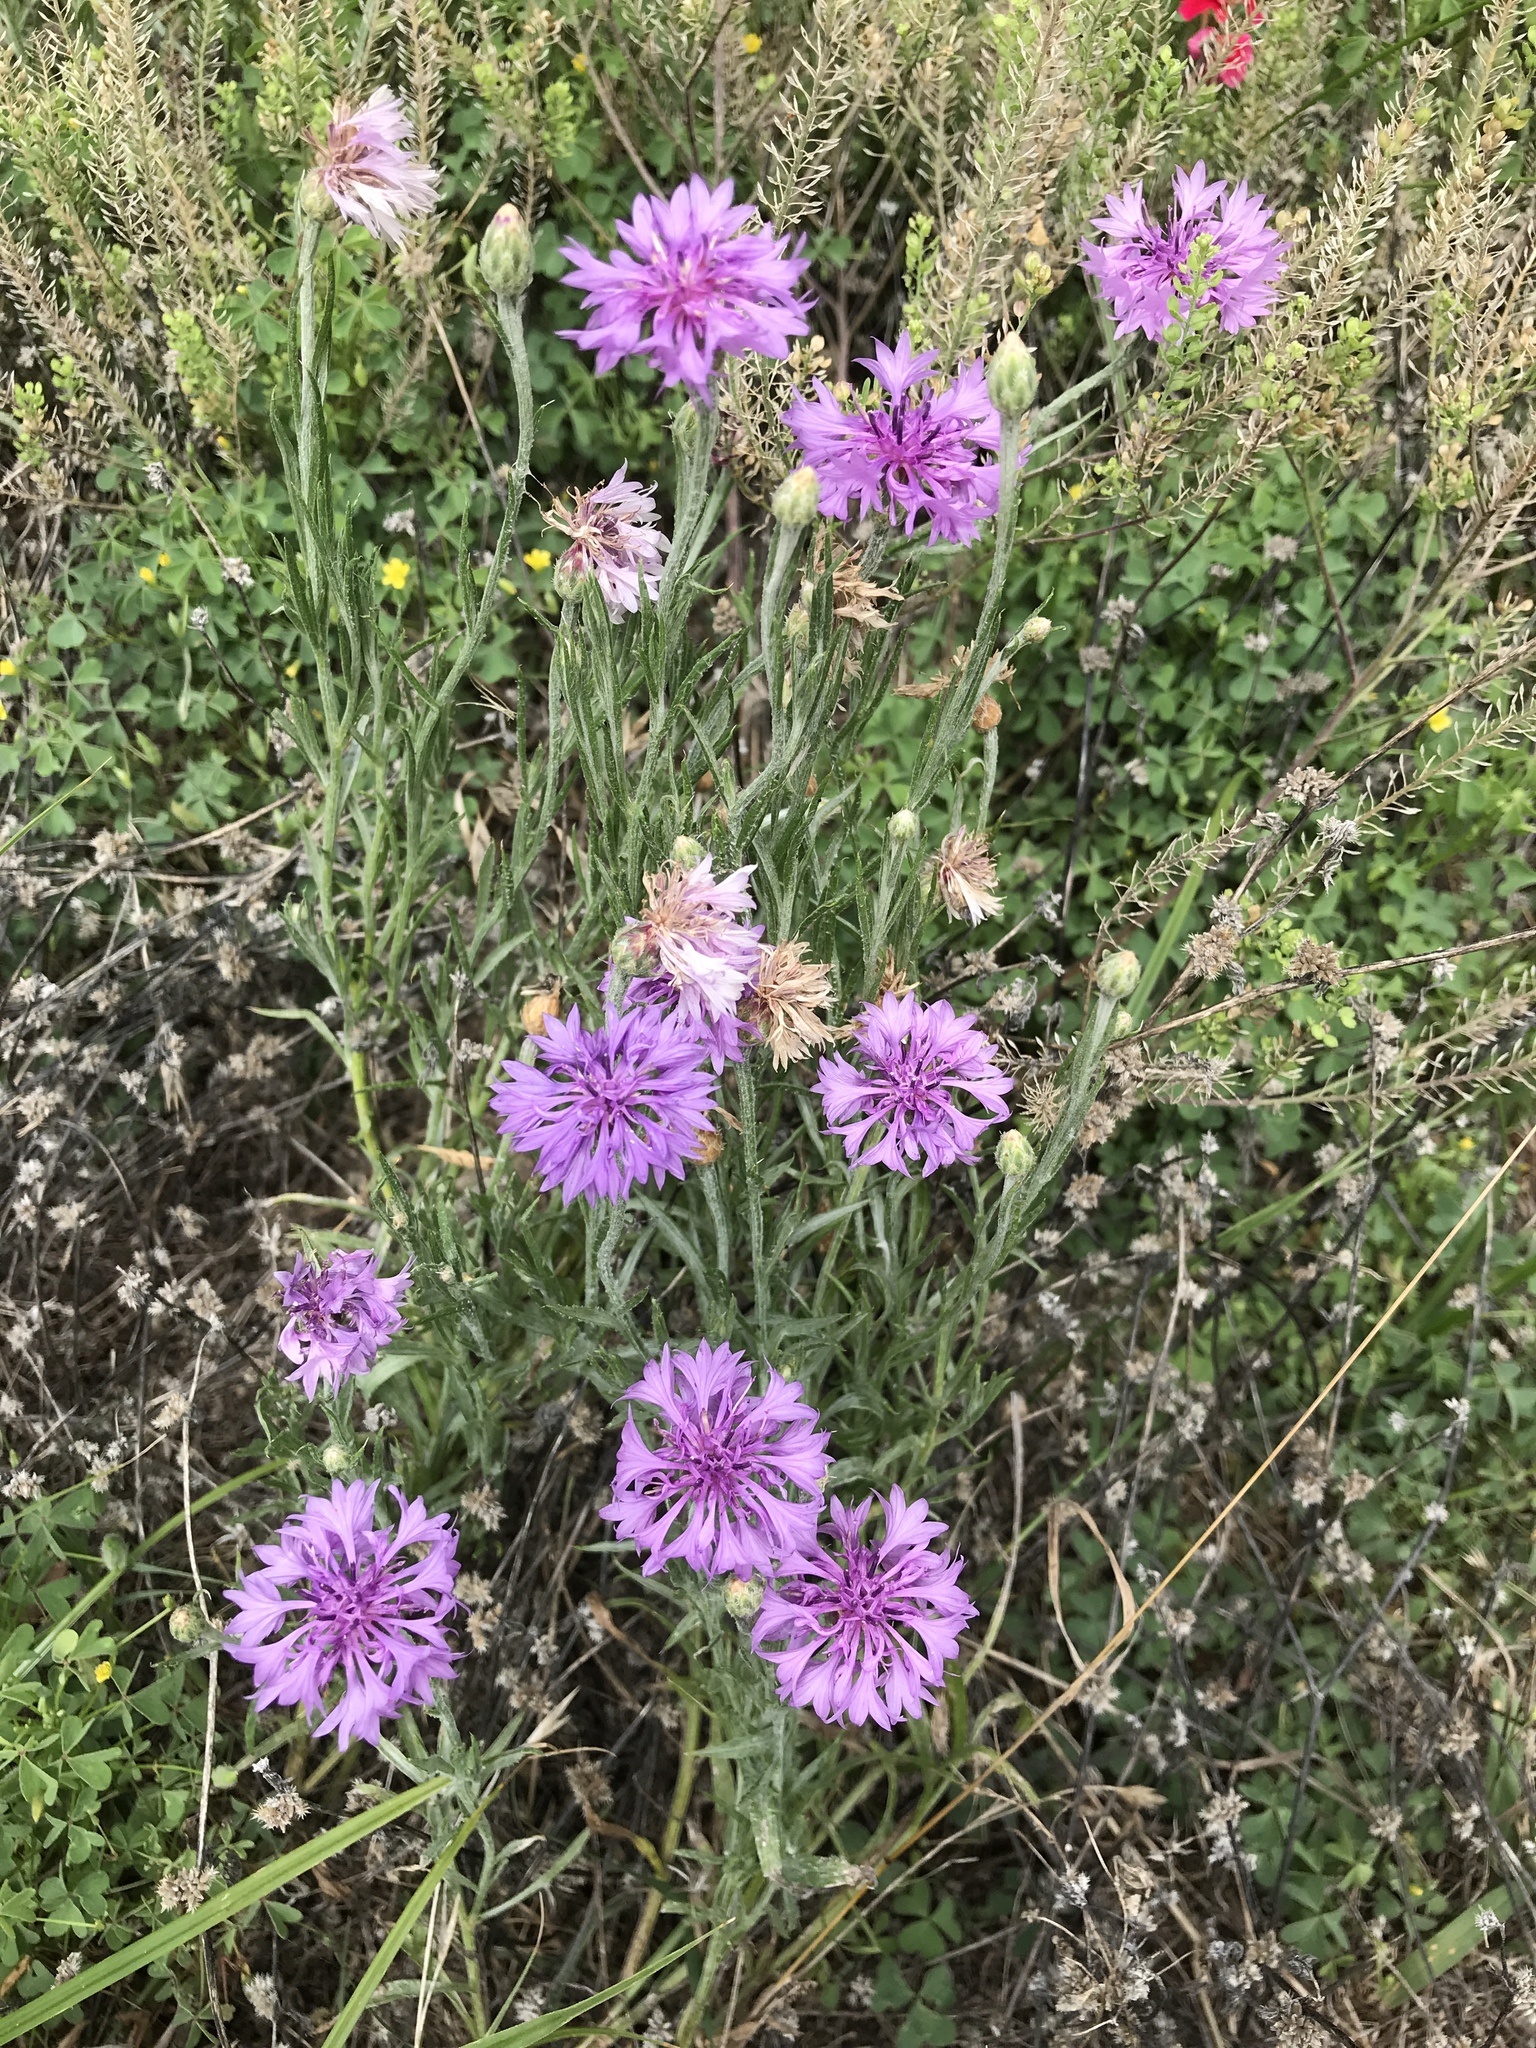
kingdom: Plantae
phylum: Tracheophyta
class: Magnoliopsida
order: Asterales
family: Asteraceae
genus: Centaurea
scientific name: Centaurea cyanus
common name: Cornflower
